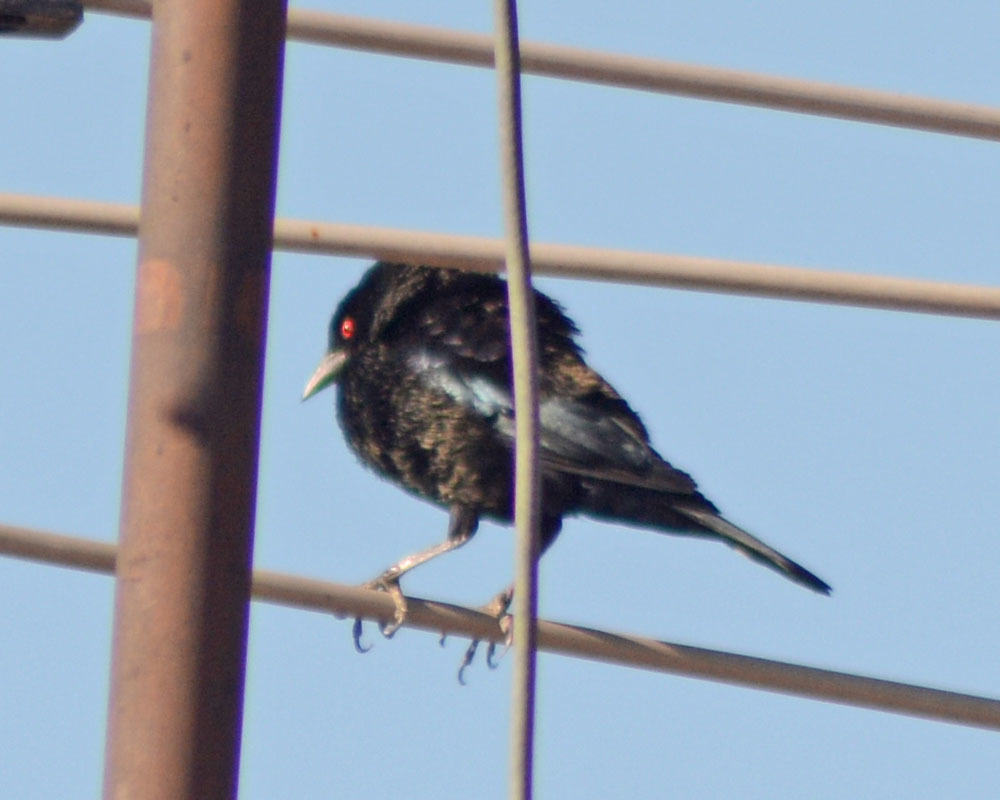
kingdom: Animalia
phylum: Chordata
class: Aves
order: Passeriformes
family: Icteridae
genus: Molothrus
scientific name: Molothrus aeneus
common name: Bronzed cowbird
